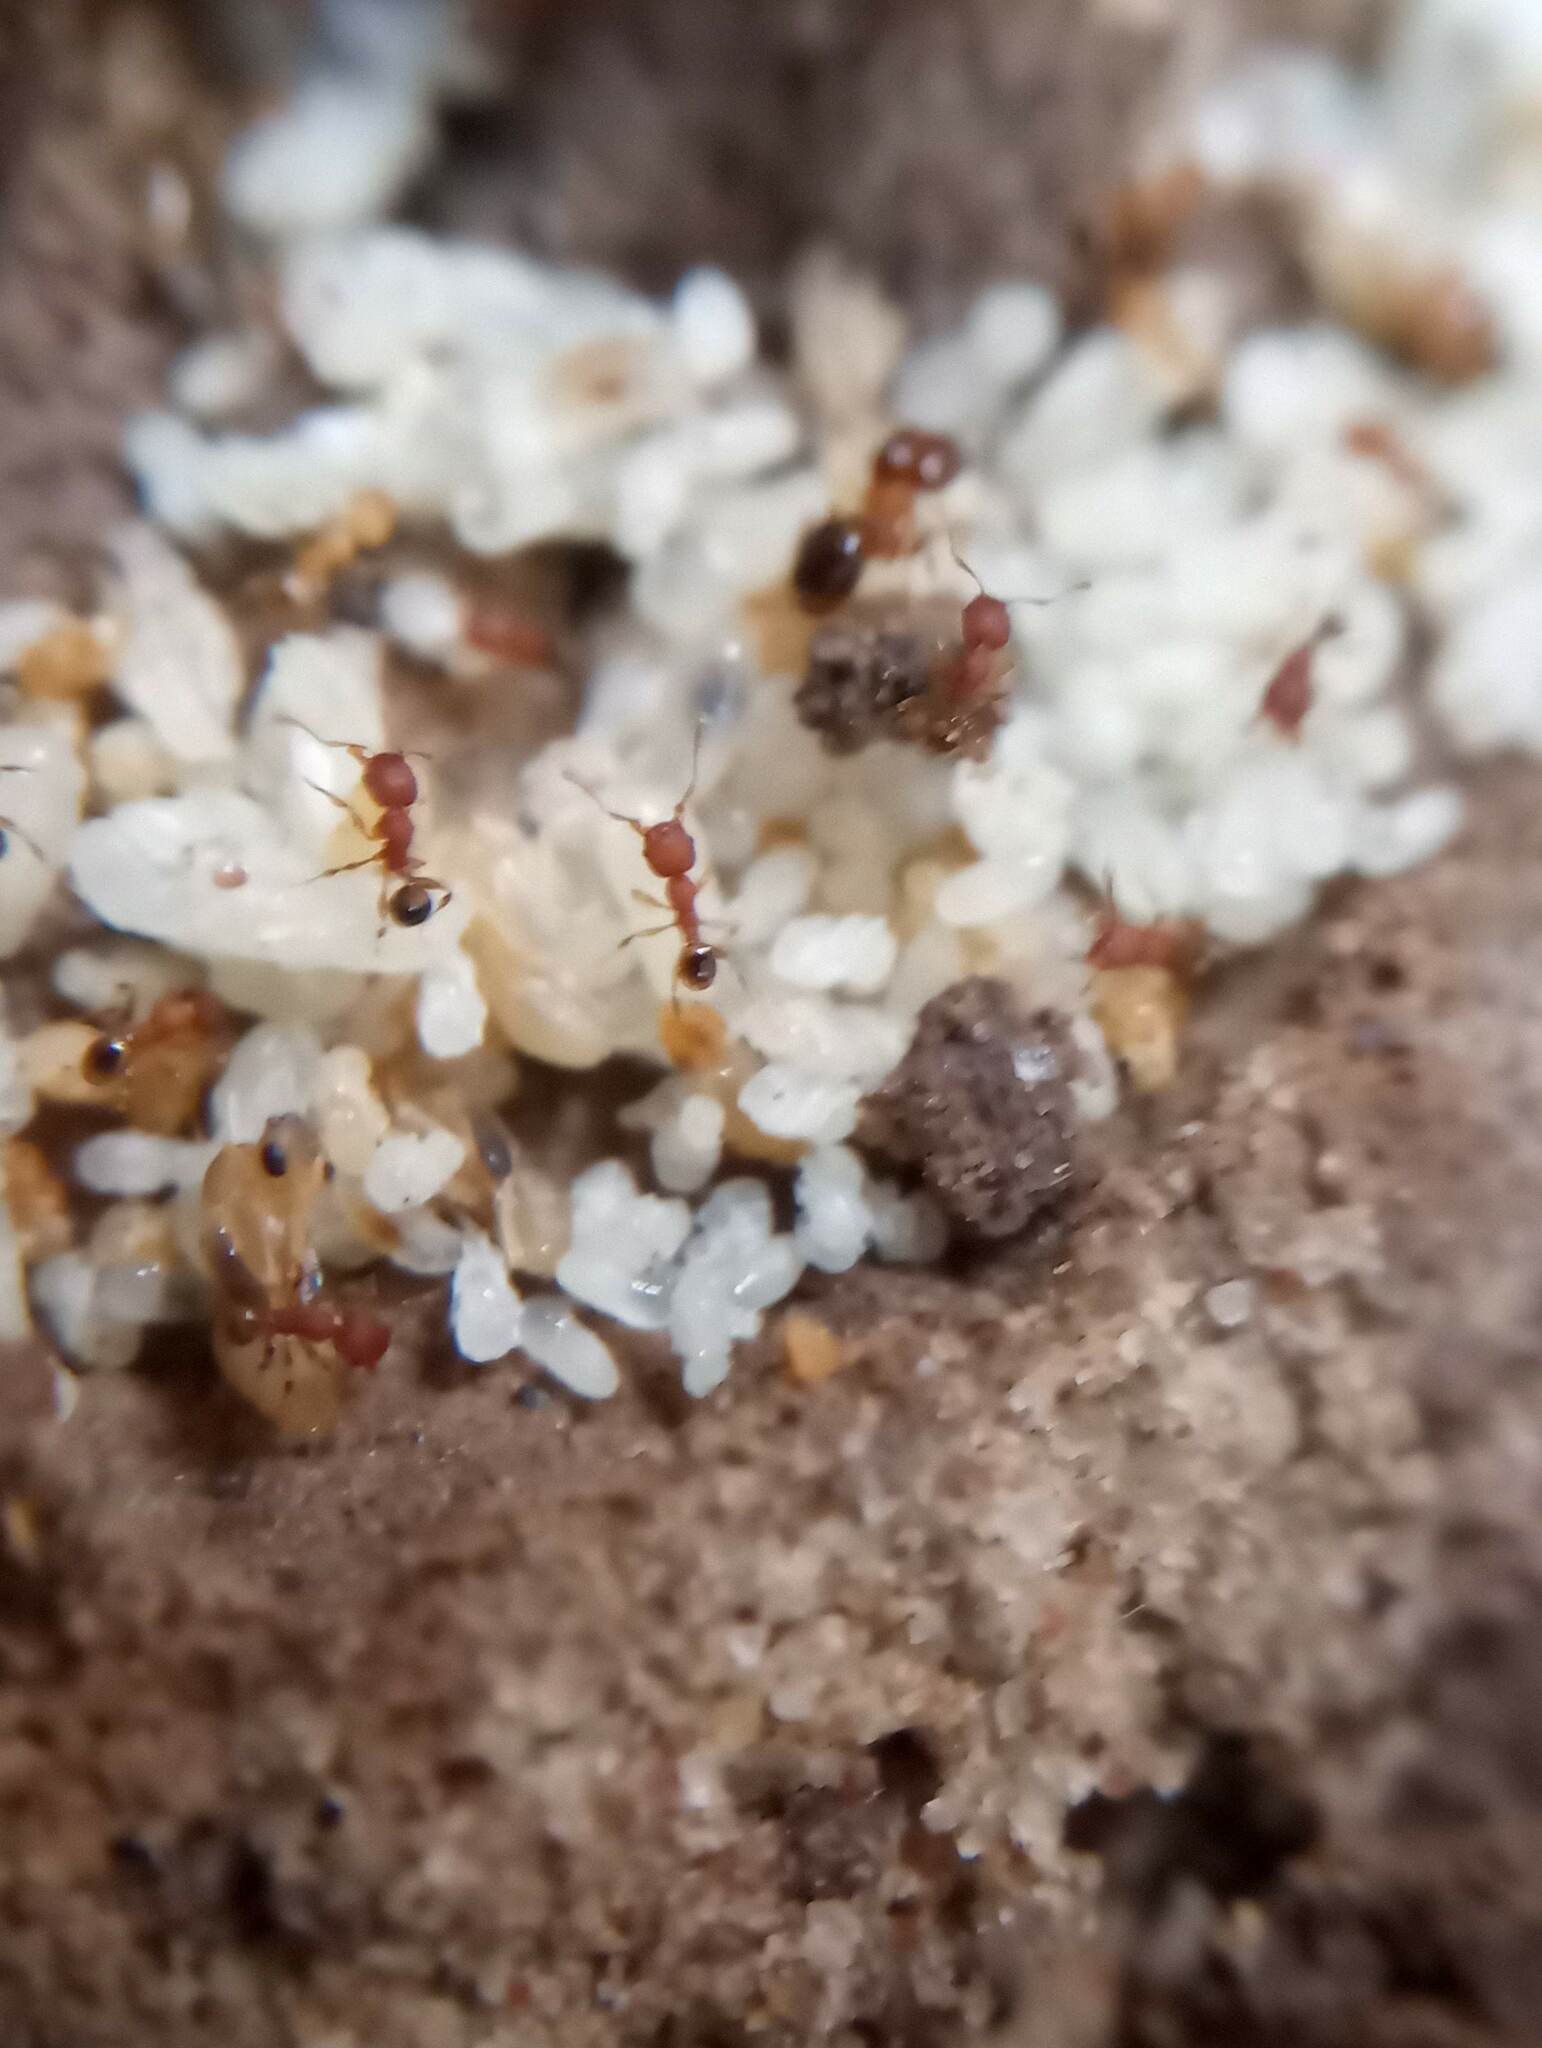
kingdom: Animalia
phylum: Arthropoda
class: Insecta
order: Hymenoptera
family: Formicidae
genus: Pheidole
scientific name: Pheidole navigans
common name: Navigating big-headed ant
